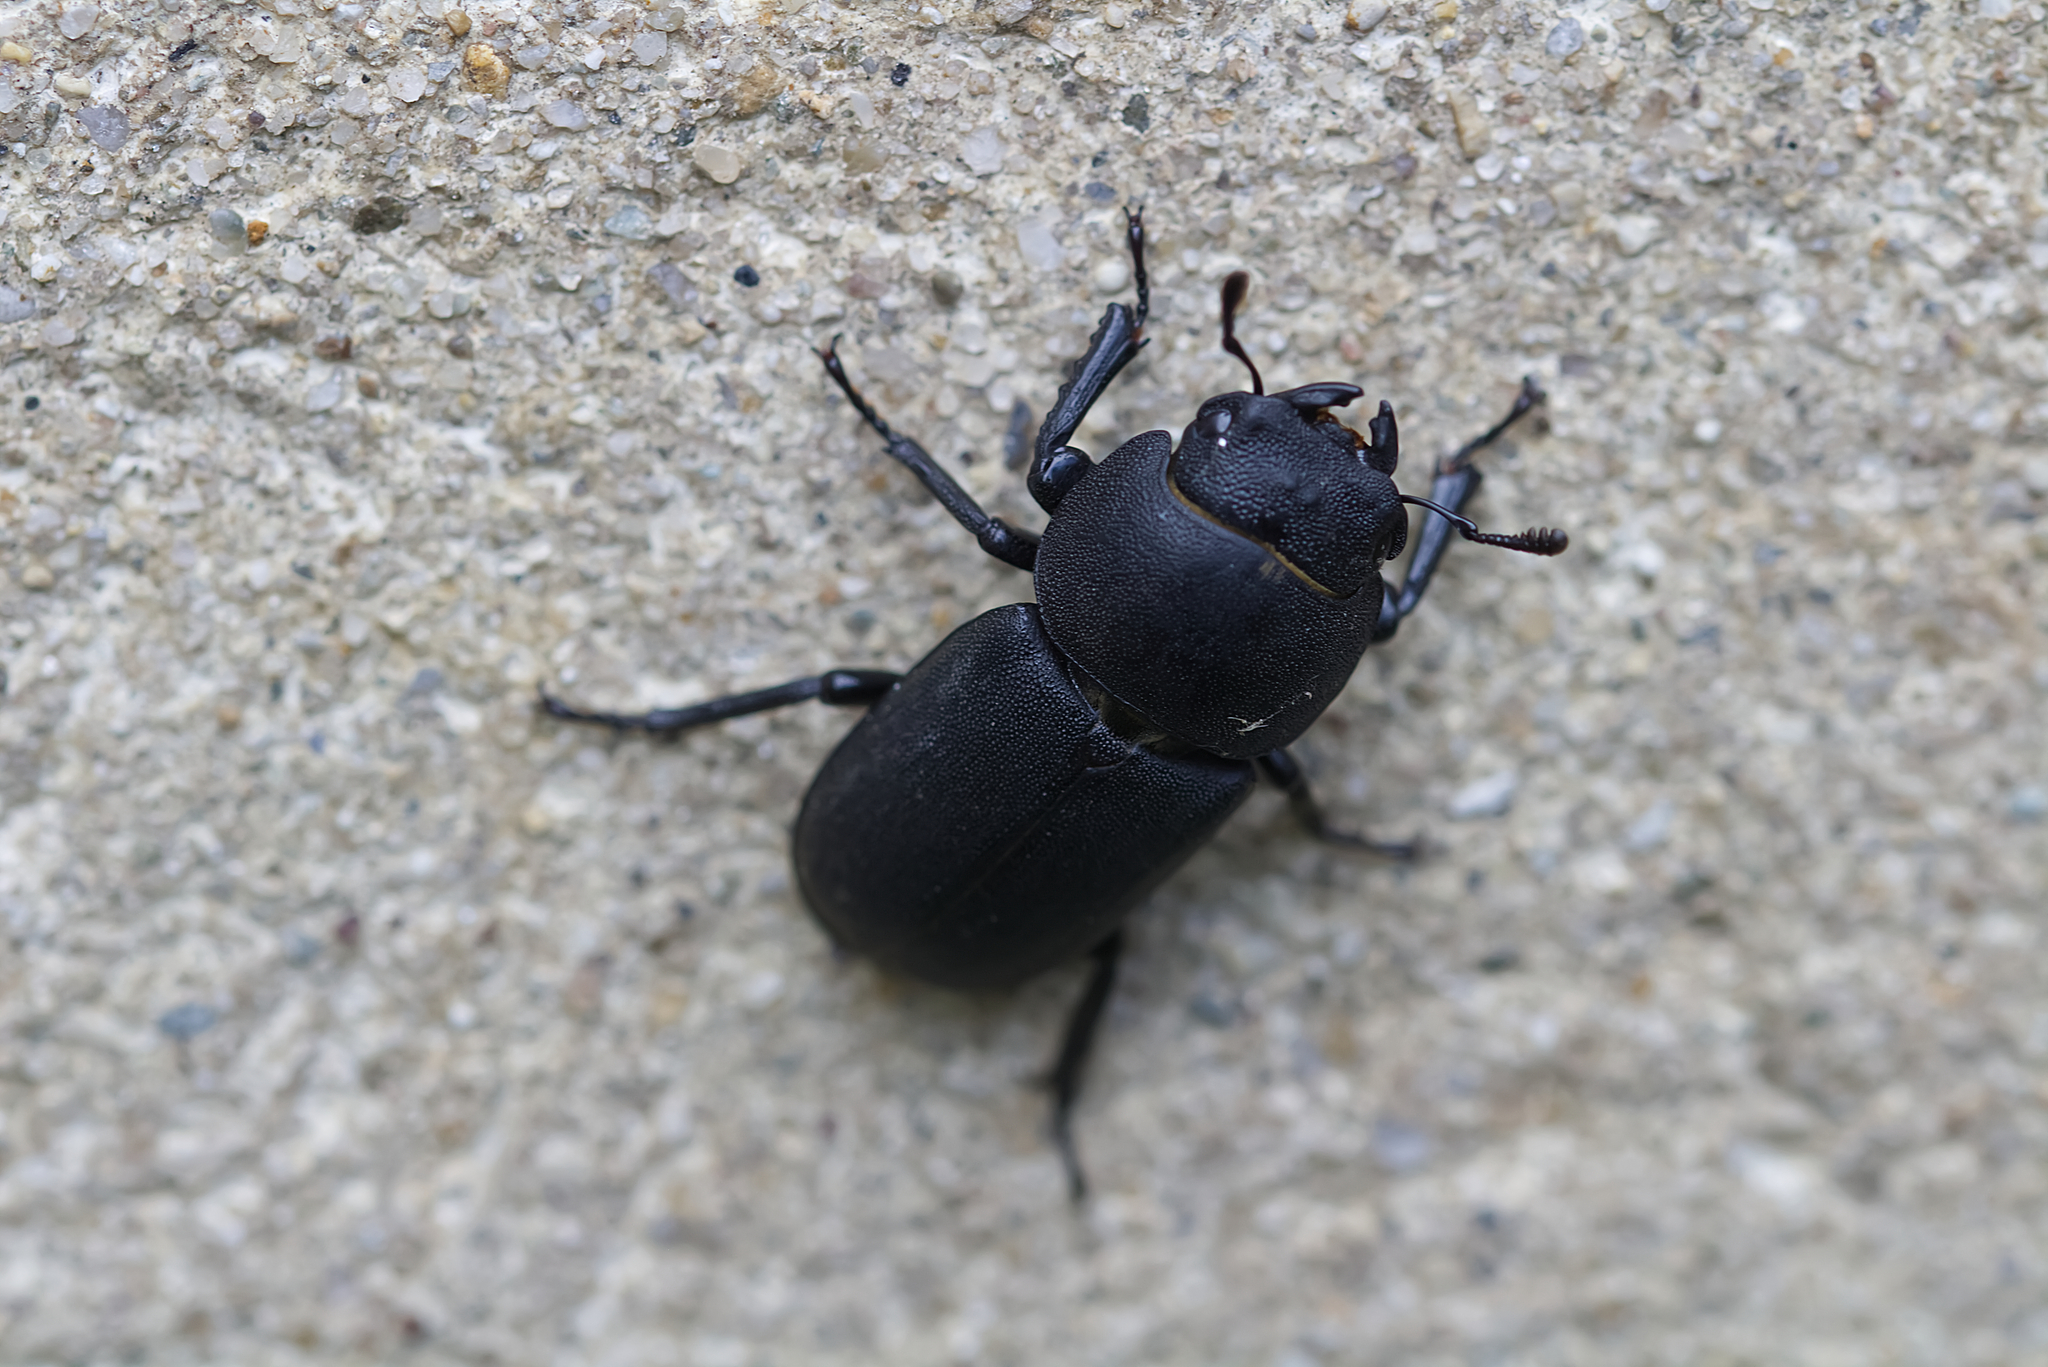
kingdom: Animalia
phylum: Arthropoda
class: Insecta
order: Coleoptera
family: Lucanidae
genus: Dorcus
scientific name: Dorcus parallelipipedus
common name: Lesser stag beetle
